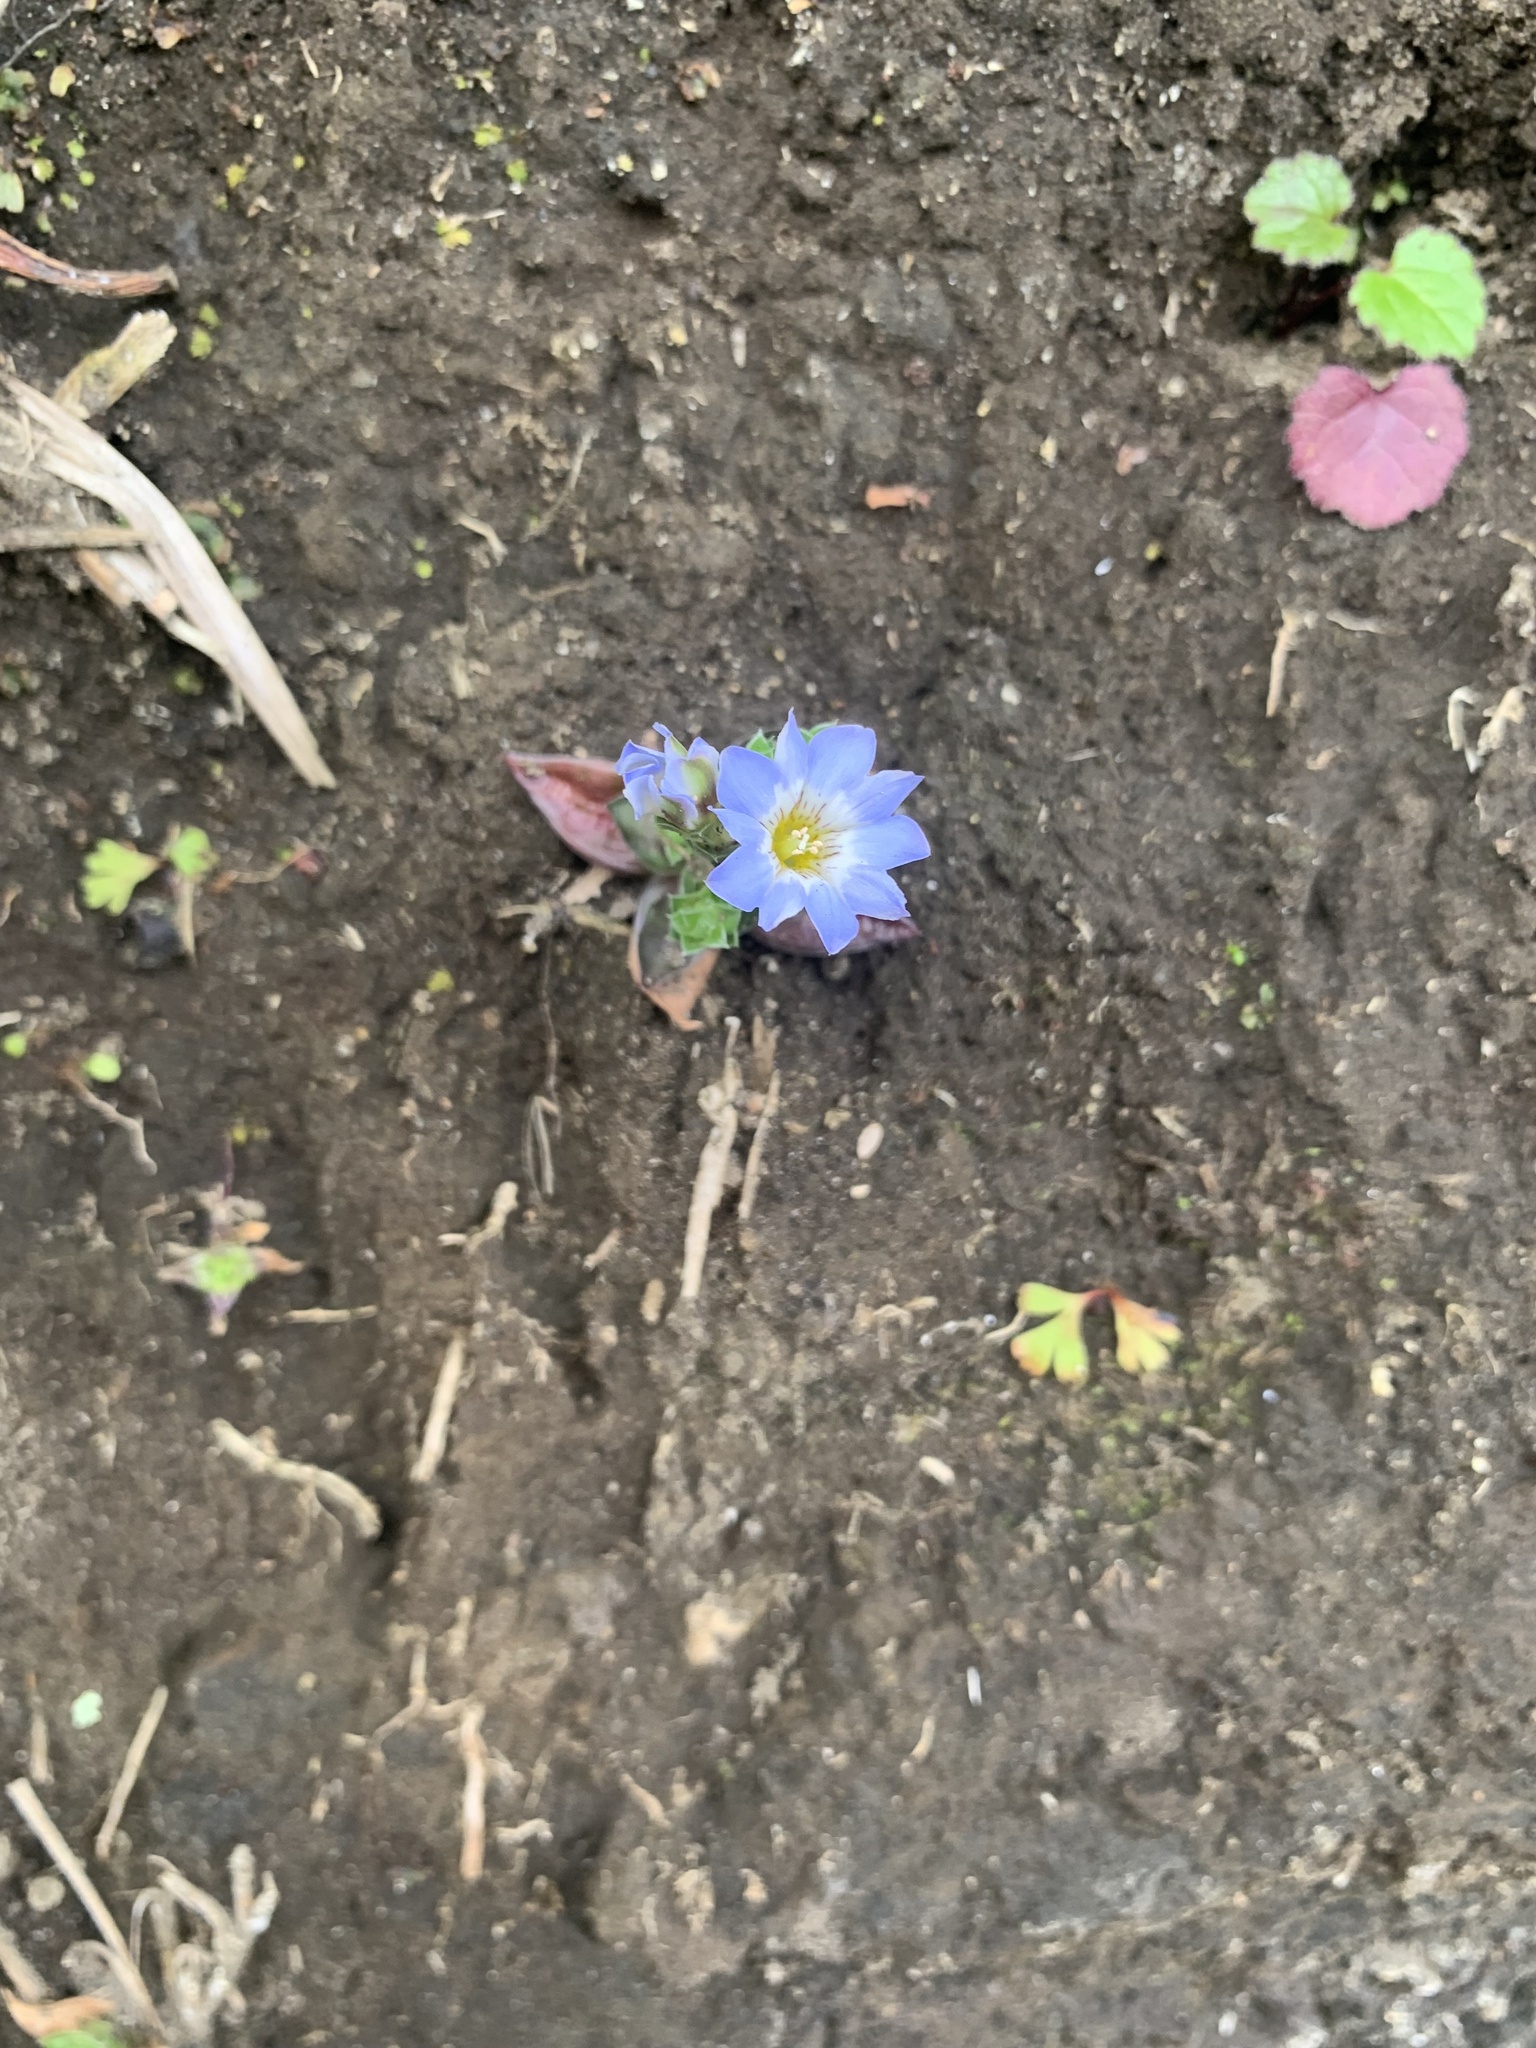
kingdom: Plantae
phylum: Tracheophyta
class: Magnoliopsida
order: Gentianales
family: Gentianaceae
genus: Gentiana
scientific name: Gentiana squarrosa
